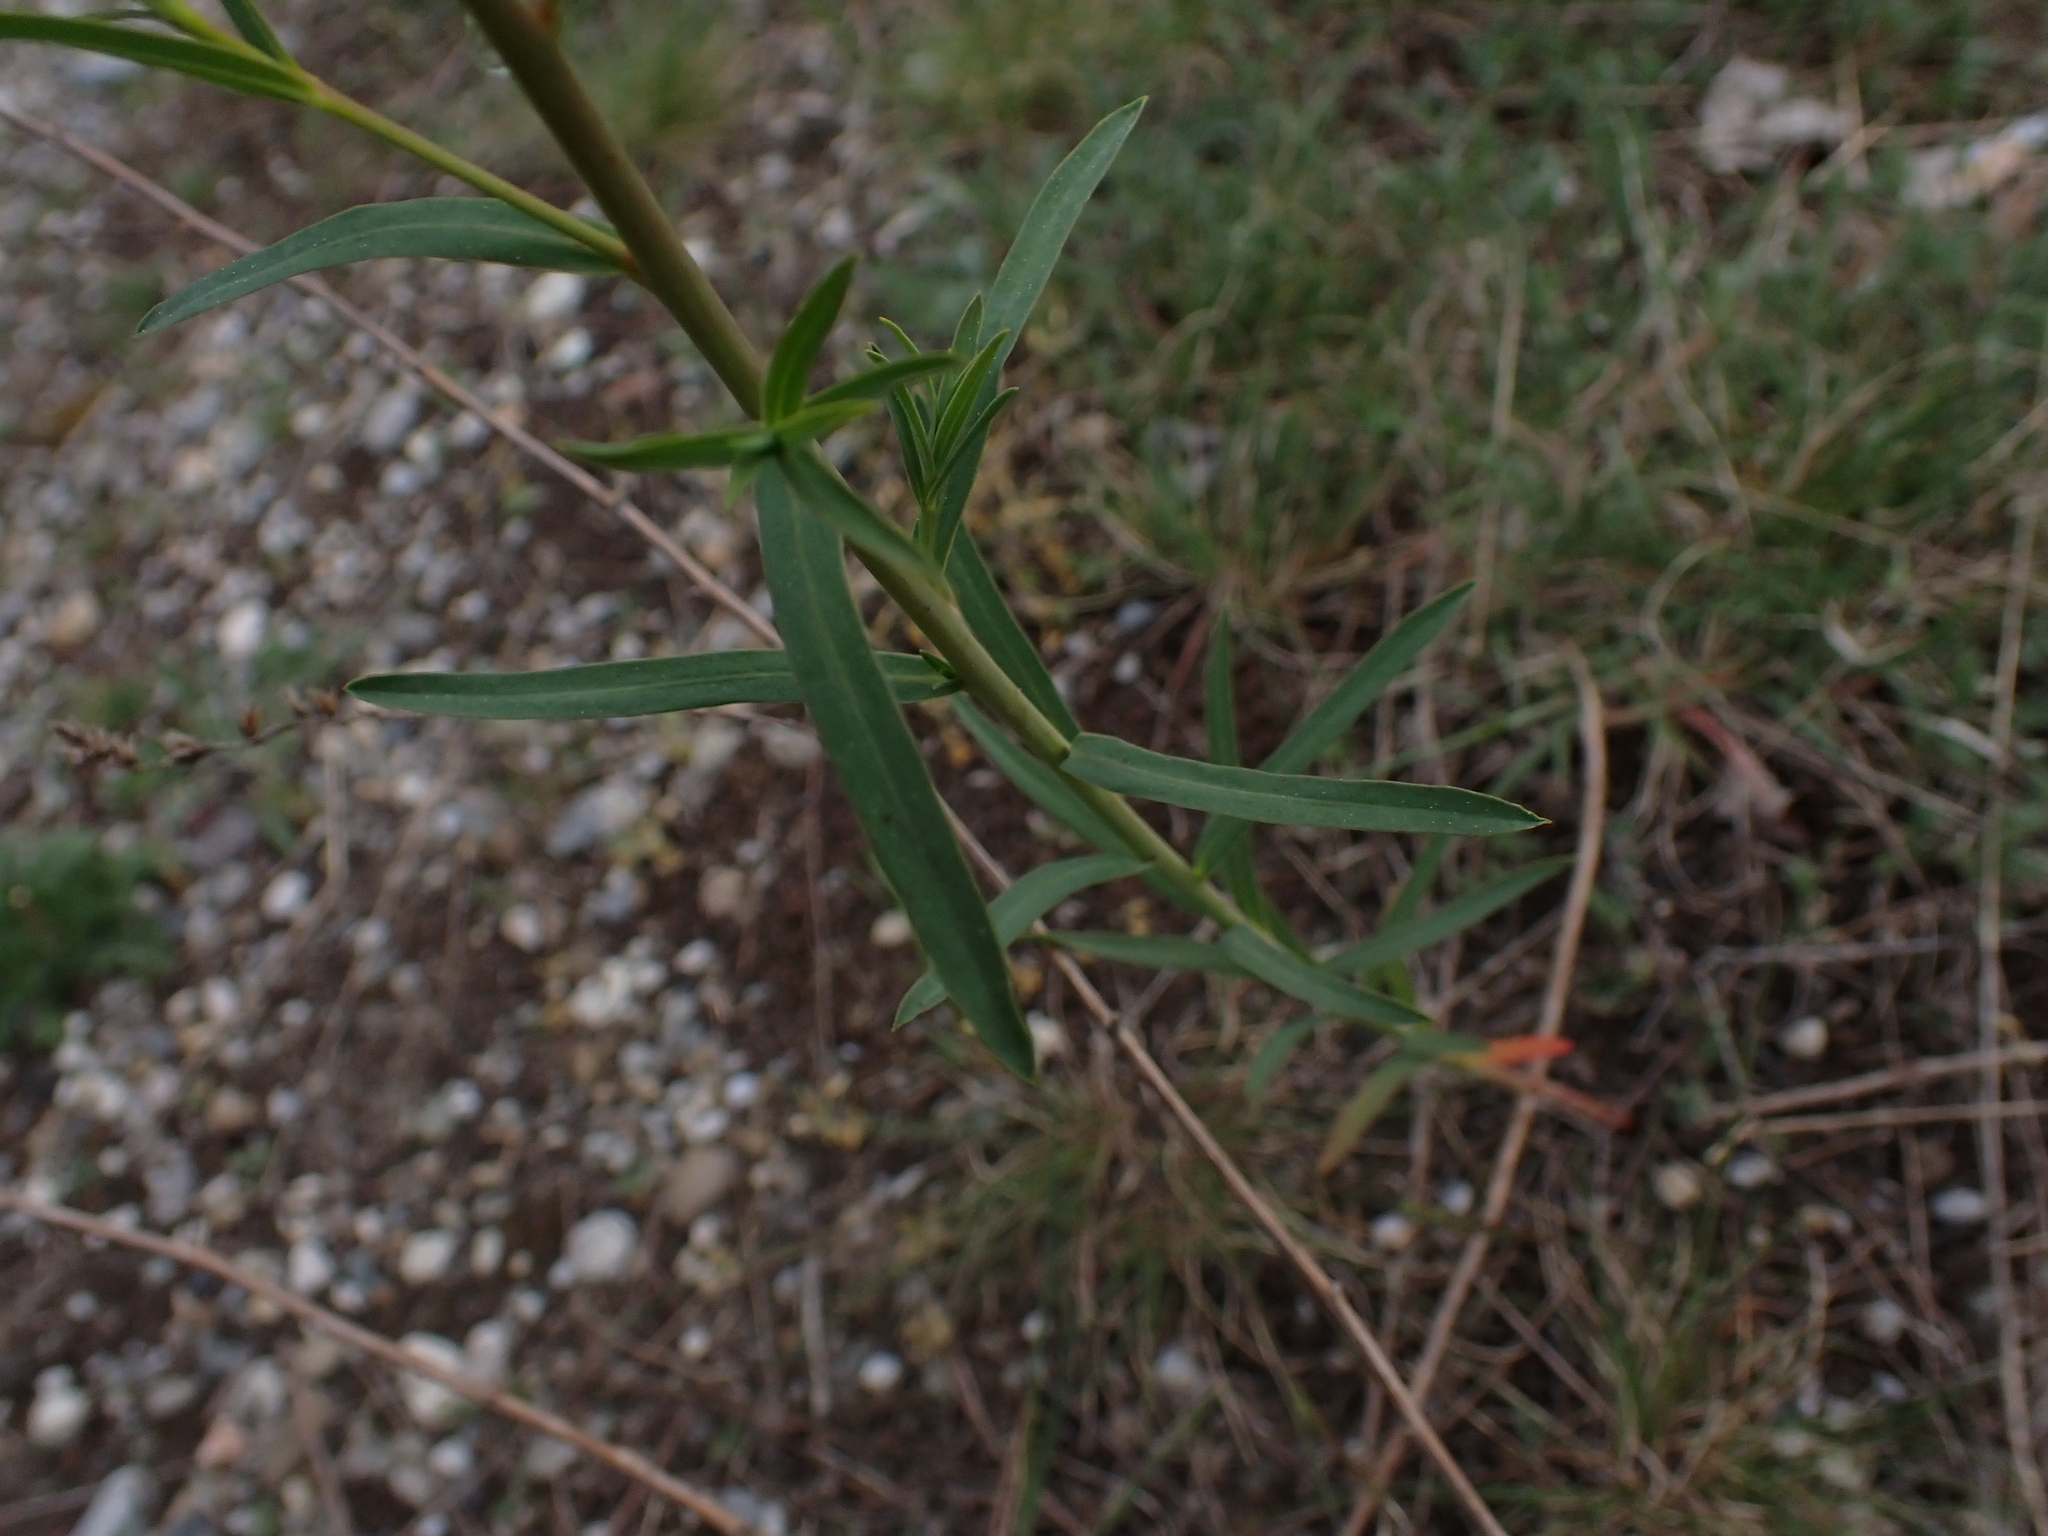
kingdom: Plantae
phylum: Tracheophyta
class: Magnoliopsida
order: Malpighiales
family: Euphorbiaceae
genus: Euphorbia
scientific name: Euphorbia virgata
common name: Leafy spurge
